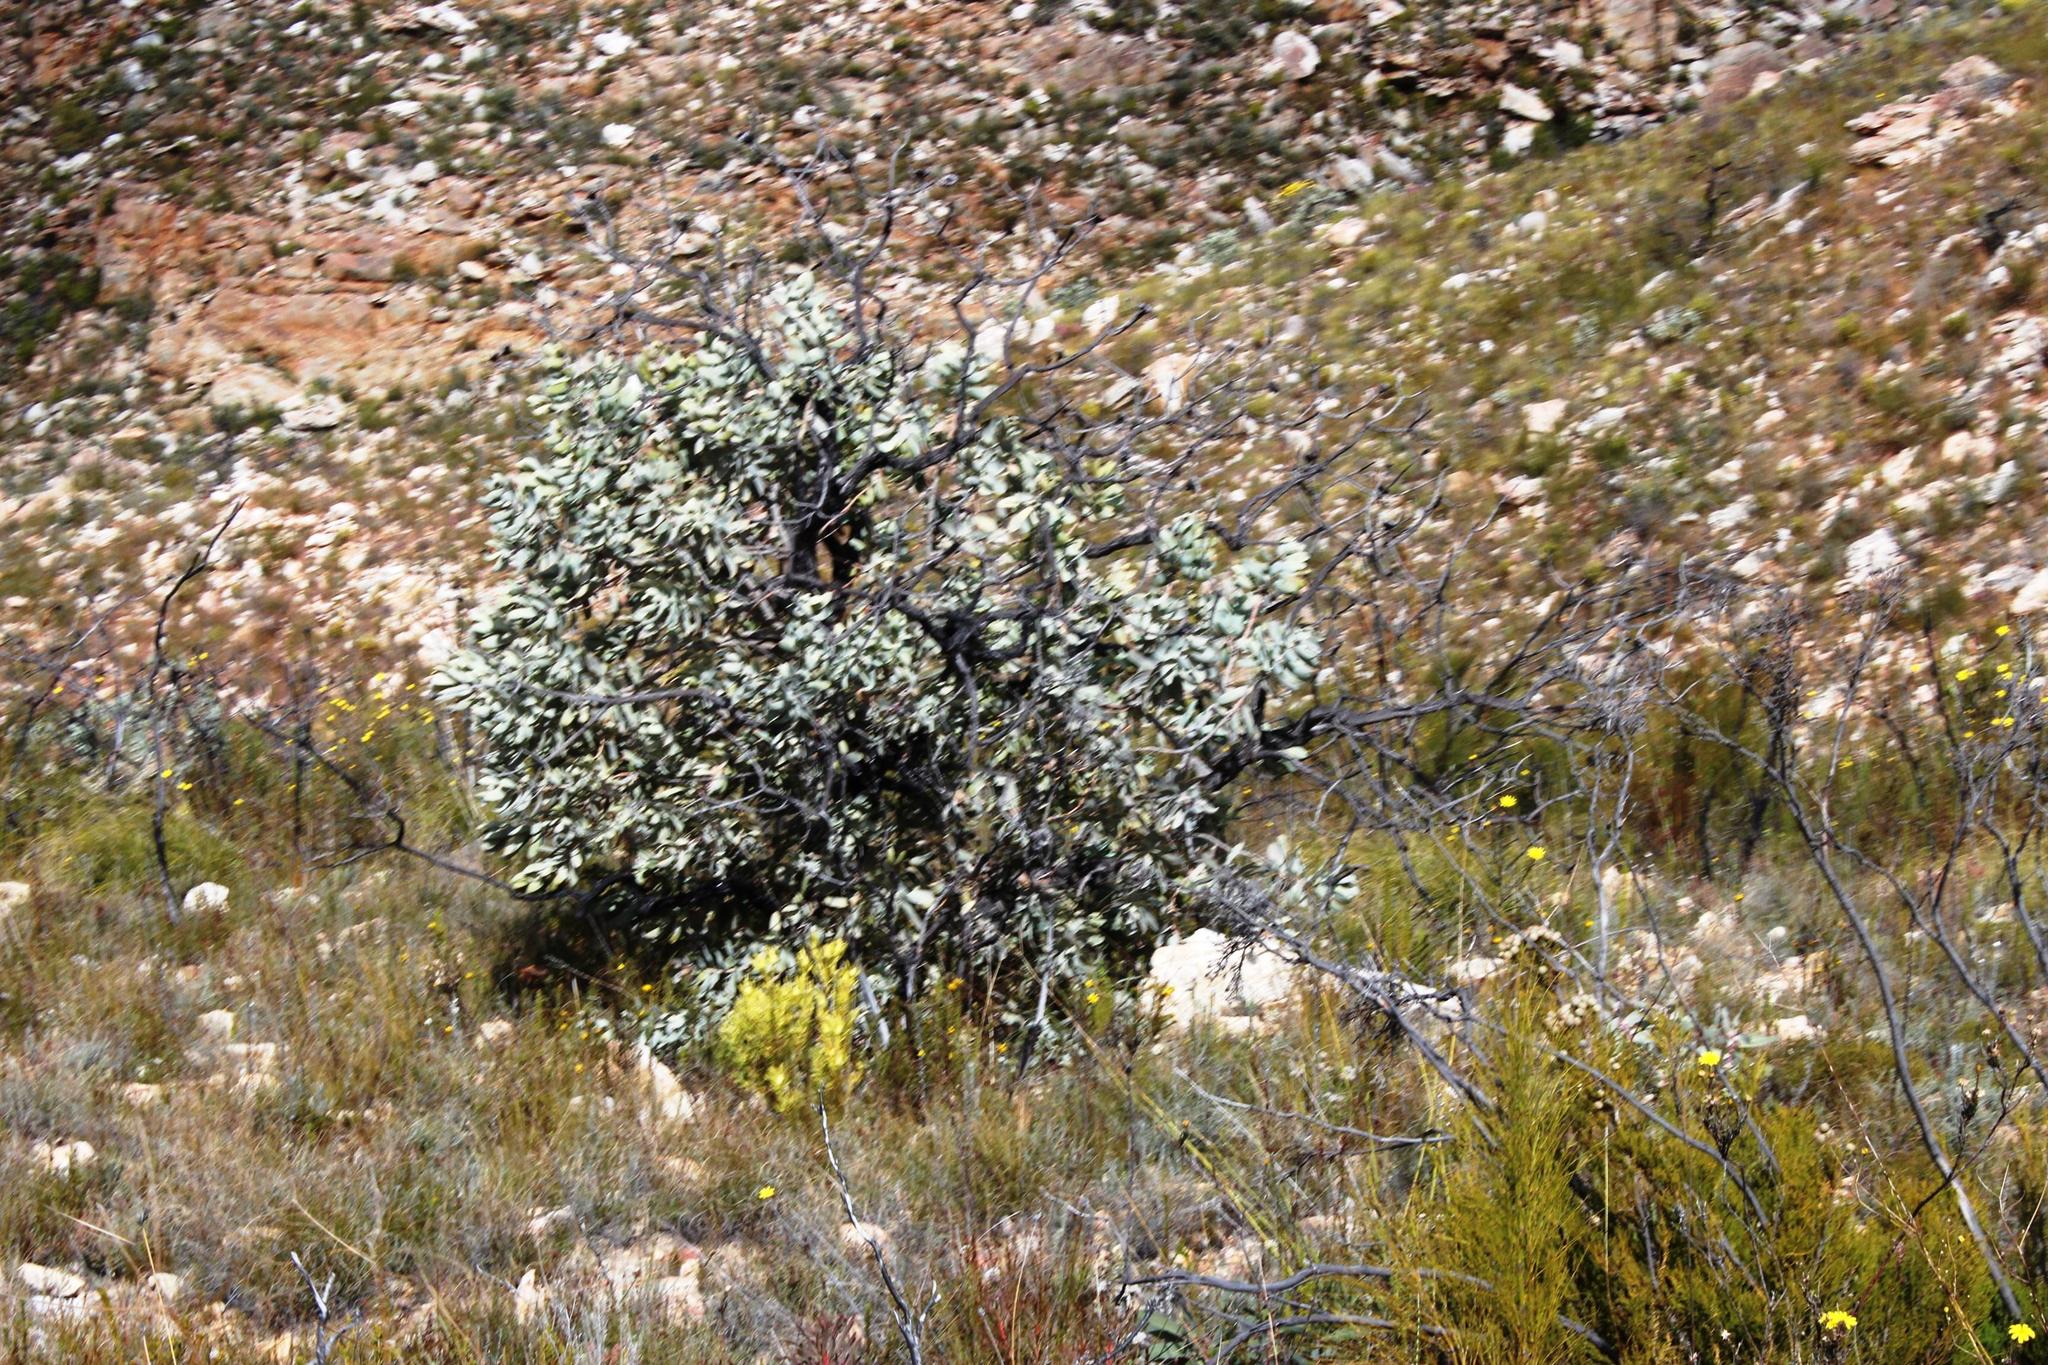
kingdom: Plantae
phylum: Tracheophyta
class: Magnoliopsida
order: Proteales
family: Proteaceae
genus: Protea
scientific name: Protea nitida
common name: Tree protea
